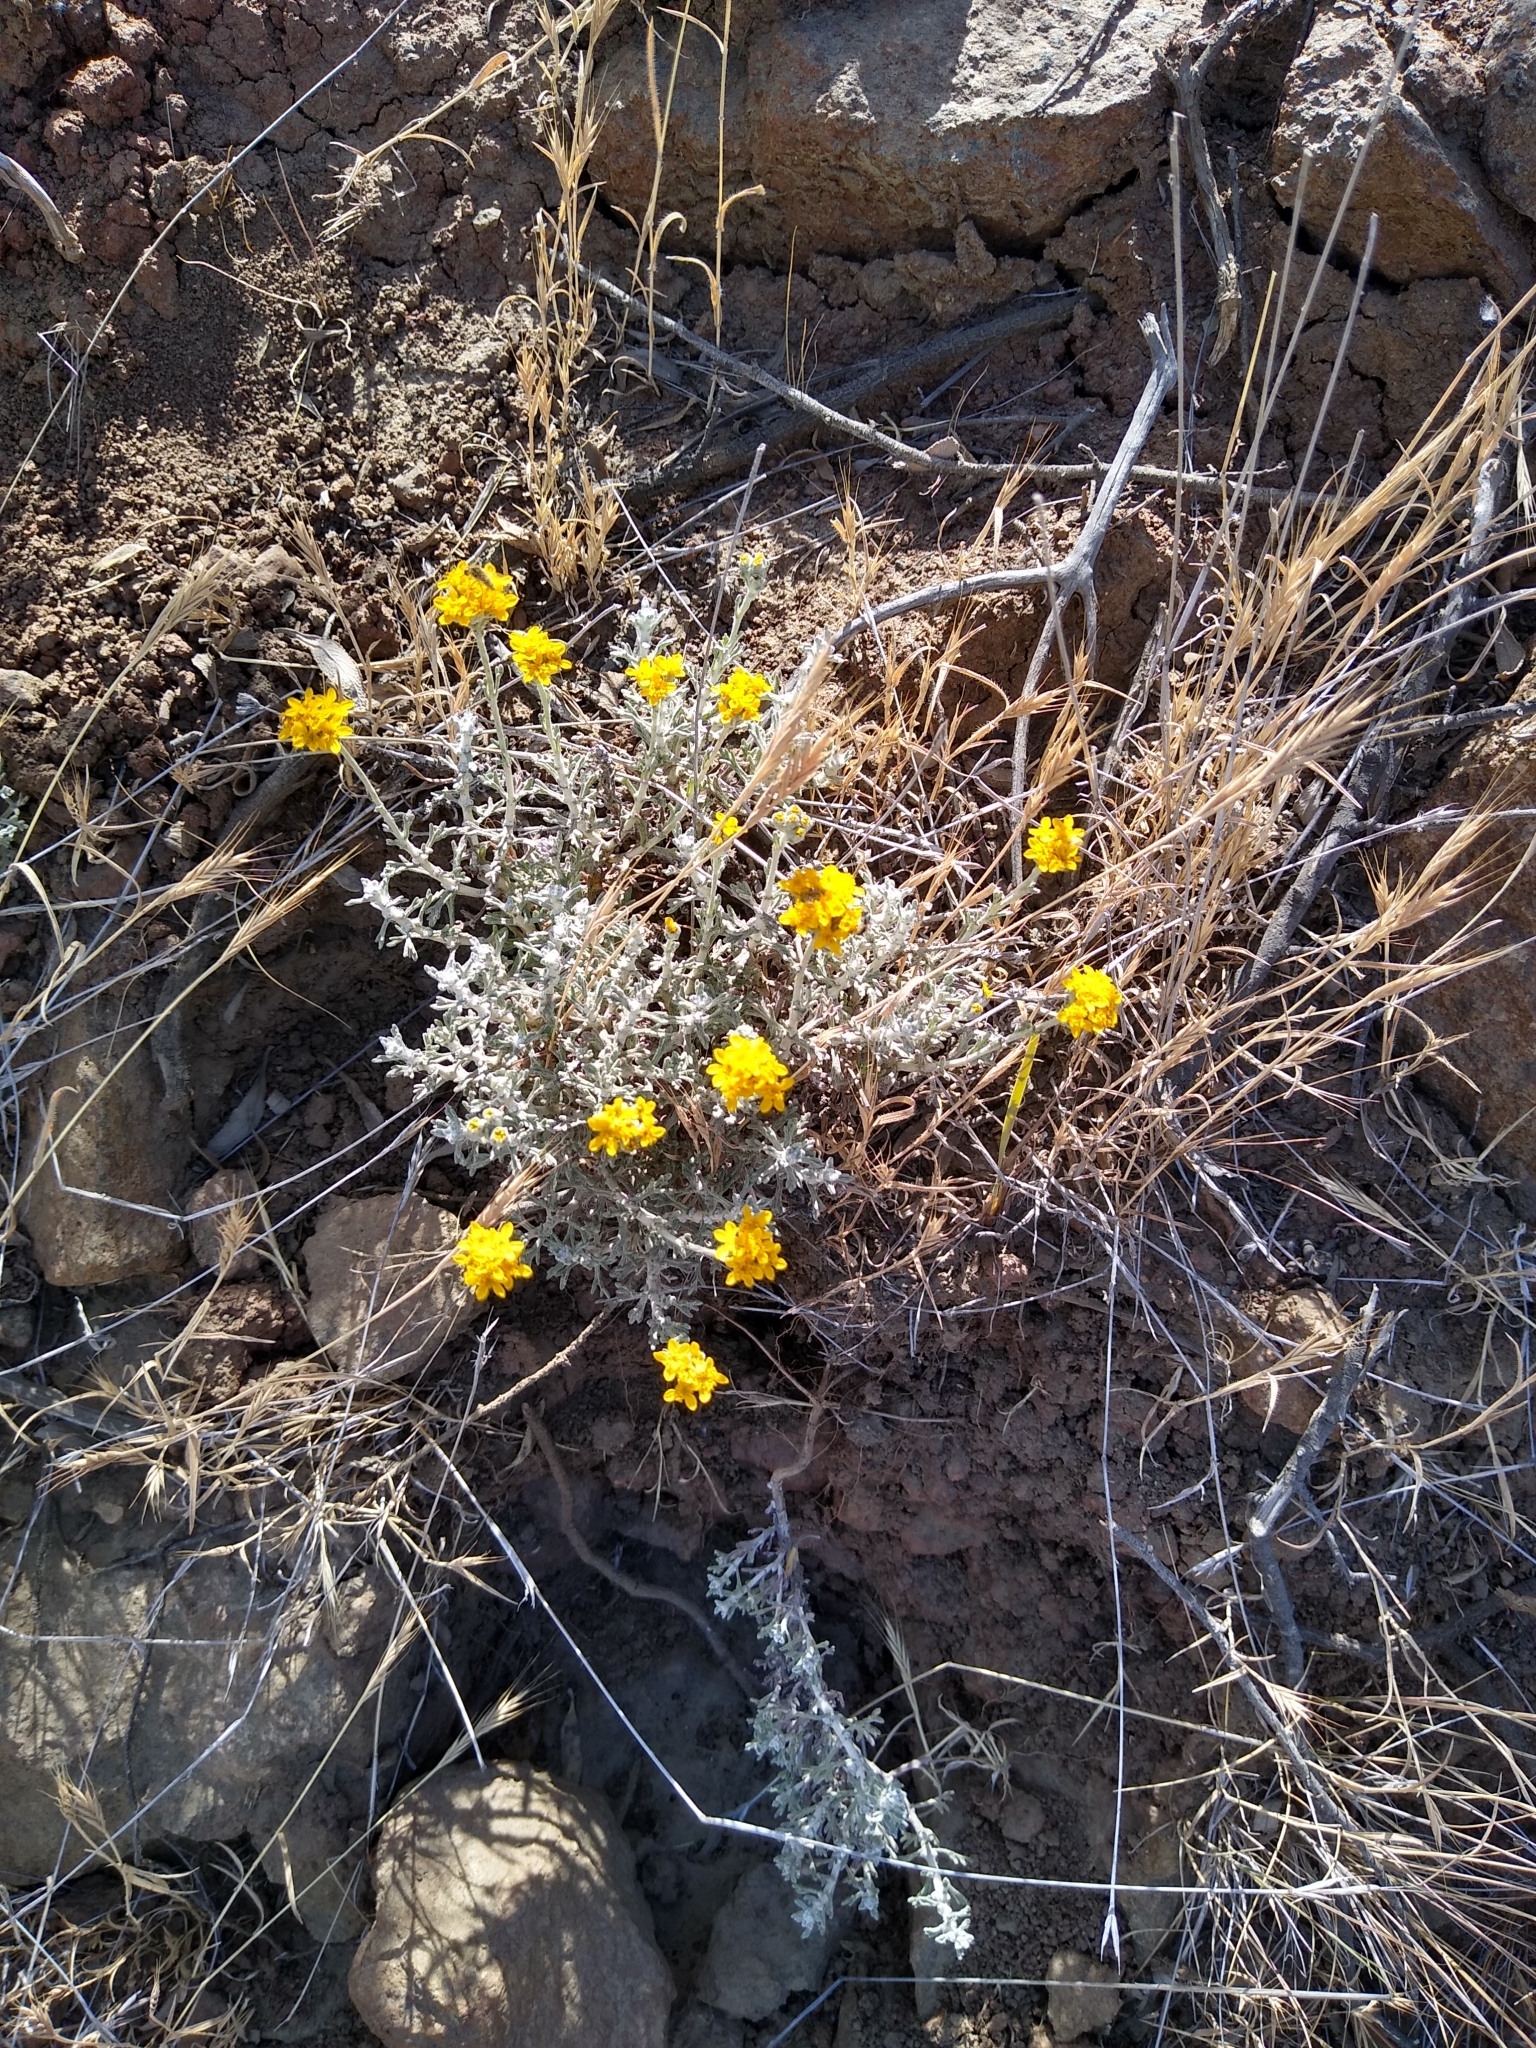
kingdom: Plantae
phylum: Tracheophyta
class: Magnoliopsida
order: Asterales
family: Asteraceae
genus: Eriophyllum
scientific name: Eriophyllum confertiflorum
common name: Golden-yarrow
